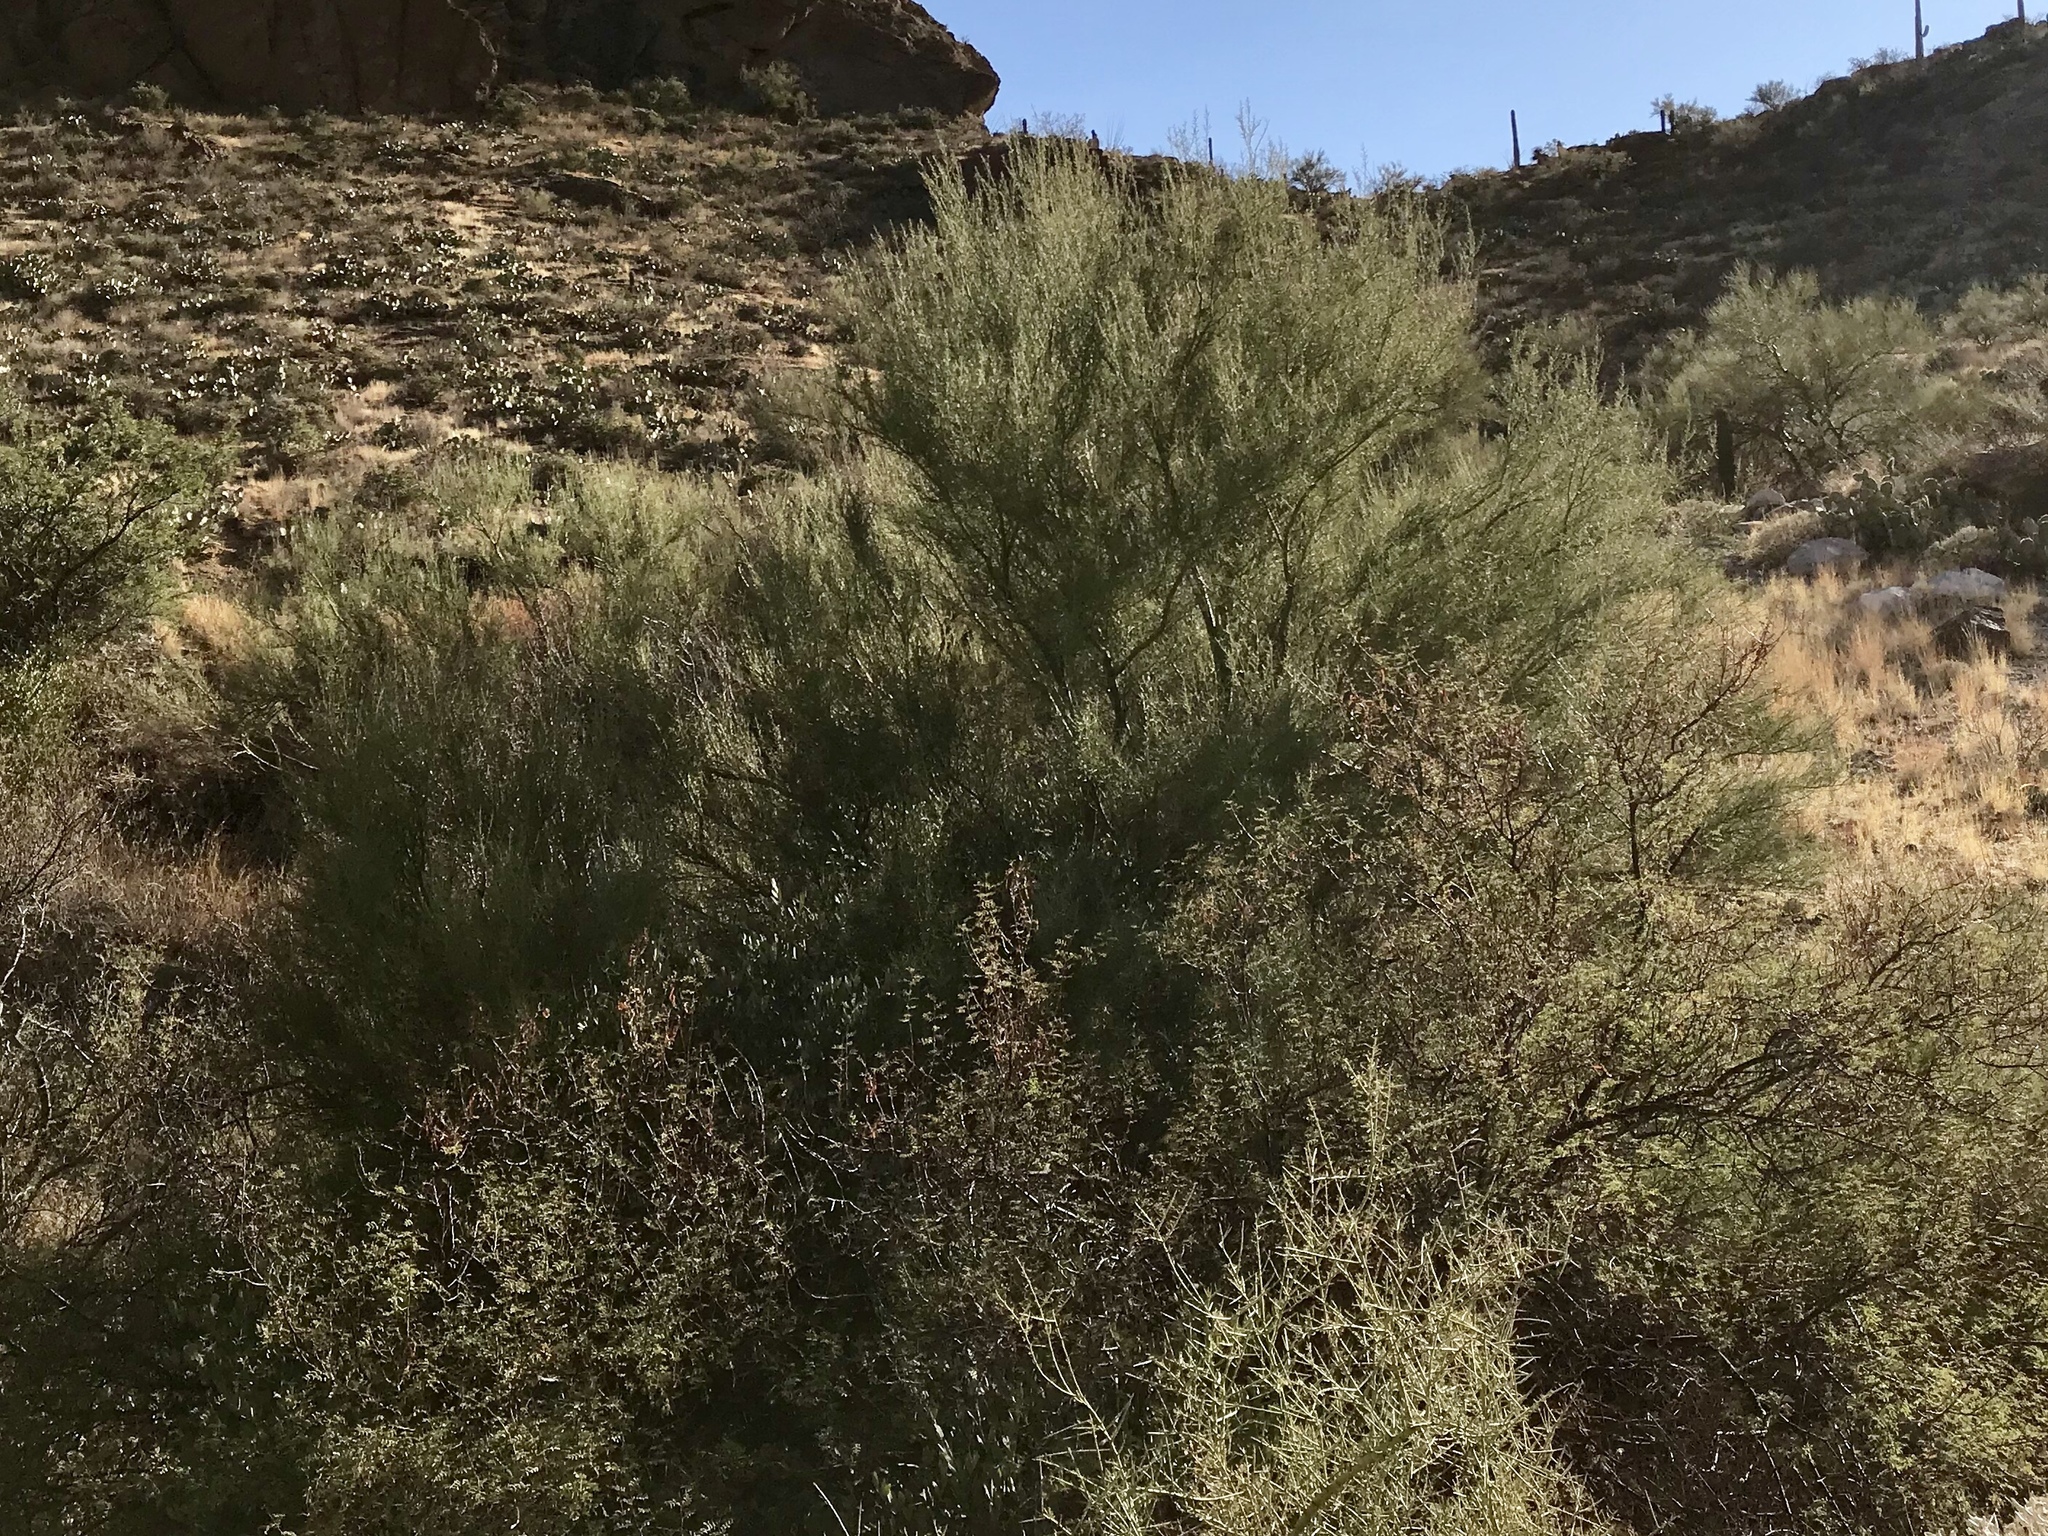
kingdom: Plantae
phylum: Tracheophyta
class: Magnoliopsida
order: Fabales
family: Fabaceae
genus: Parkinsonia
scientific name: Parkinsonia microphylla
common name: Yellow paloverde
